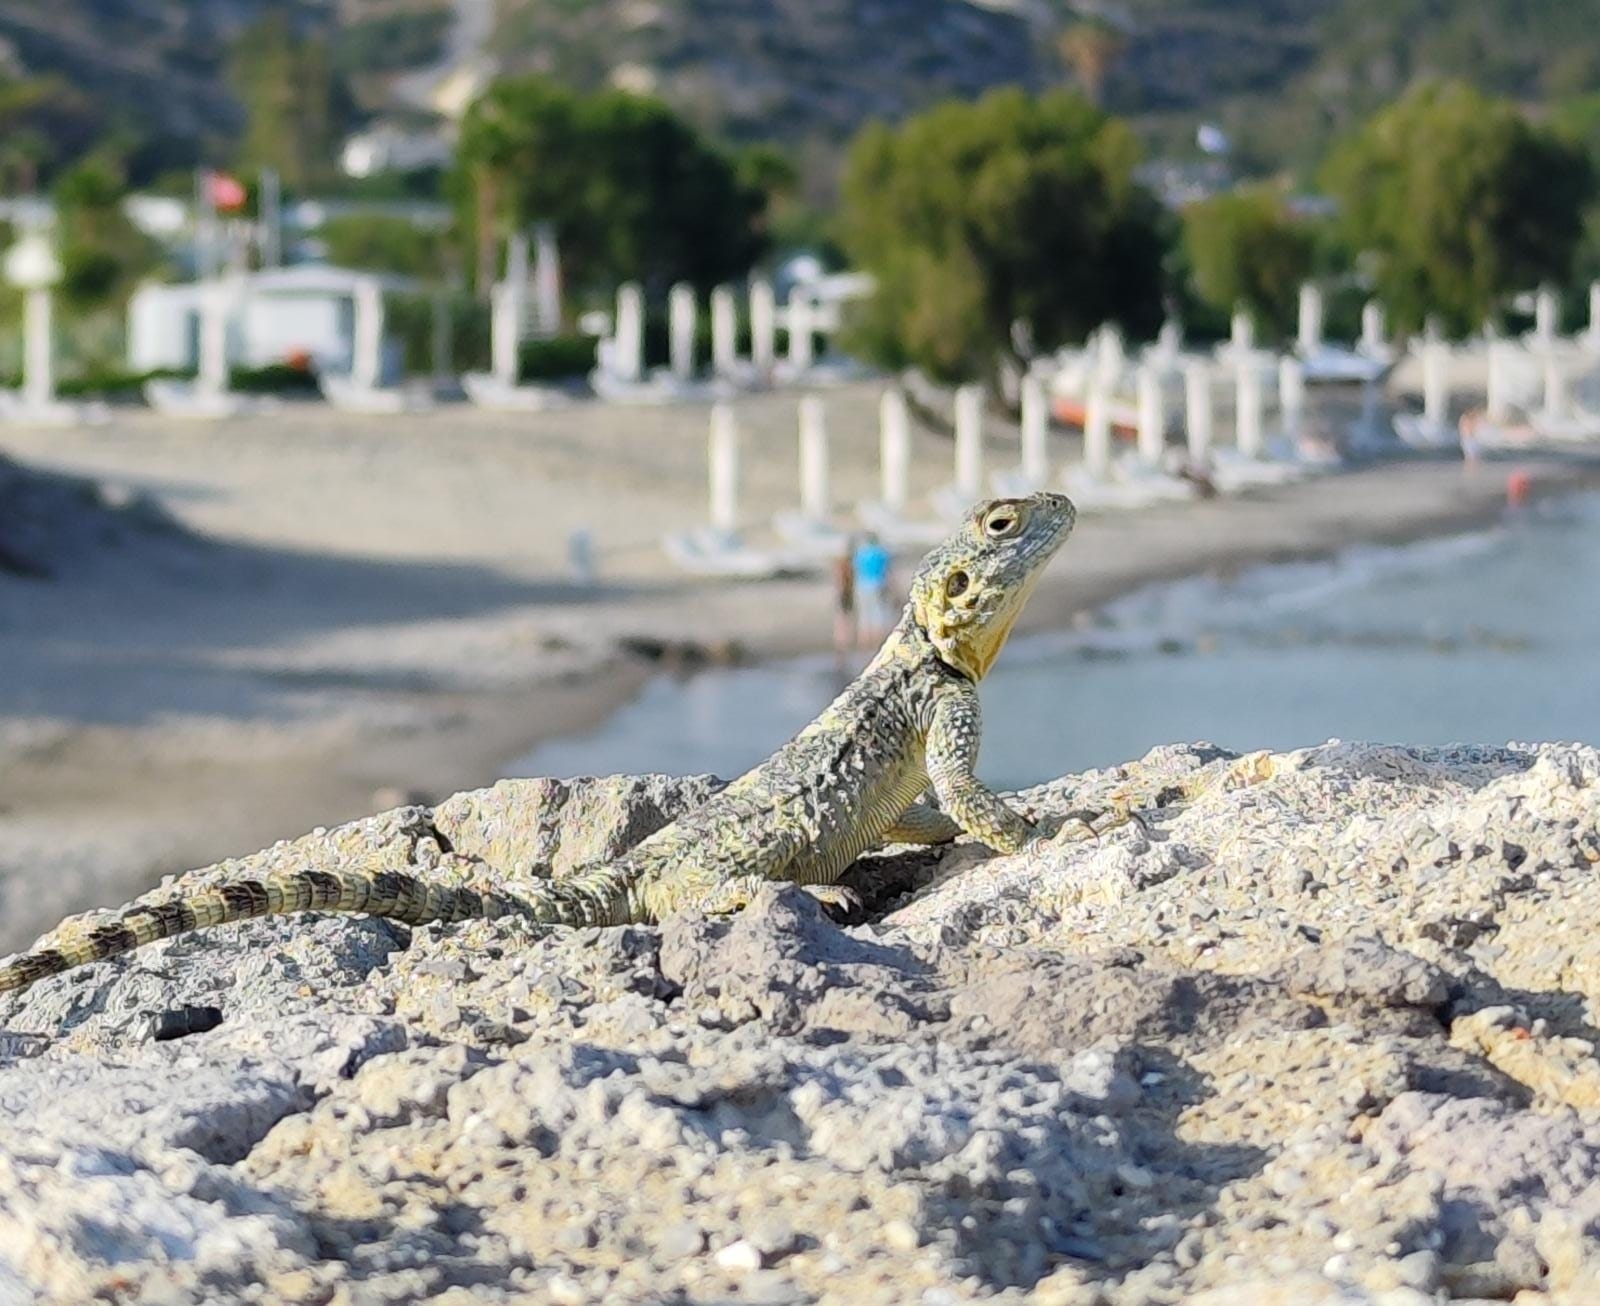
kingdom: Animalia
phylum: Chordata
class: Squamata
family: Agamidae
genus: Stellagama
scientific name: Stellagama stellio
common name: Starred agama
